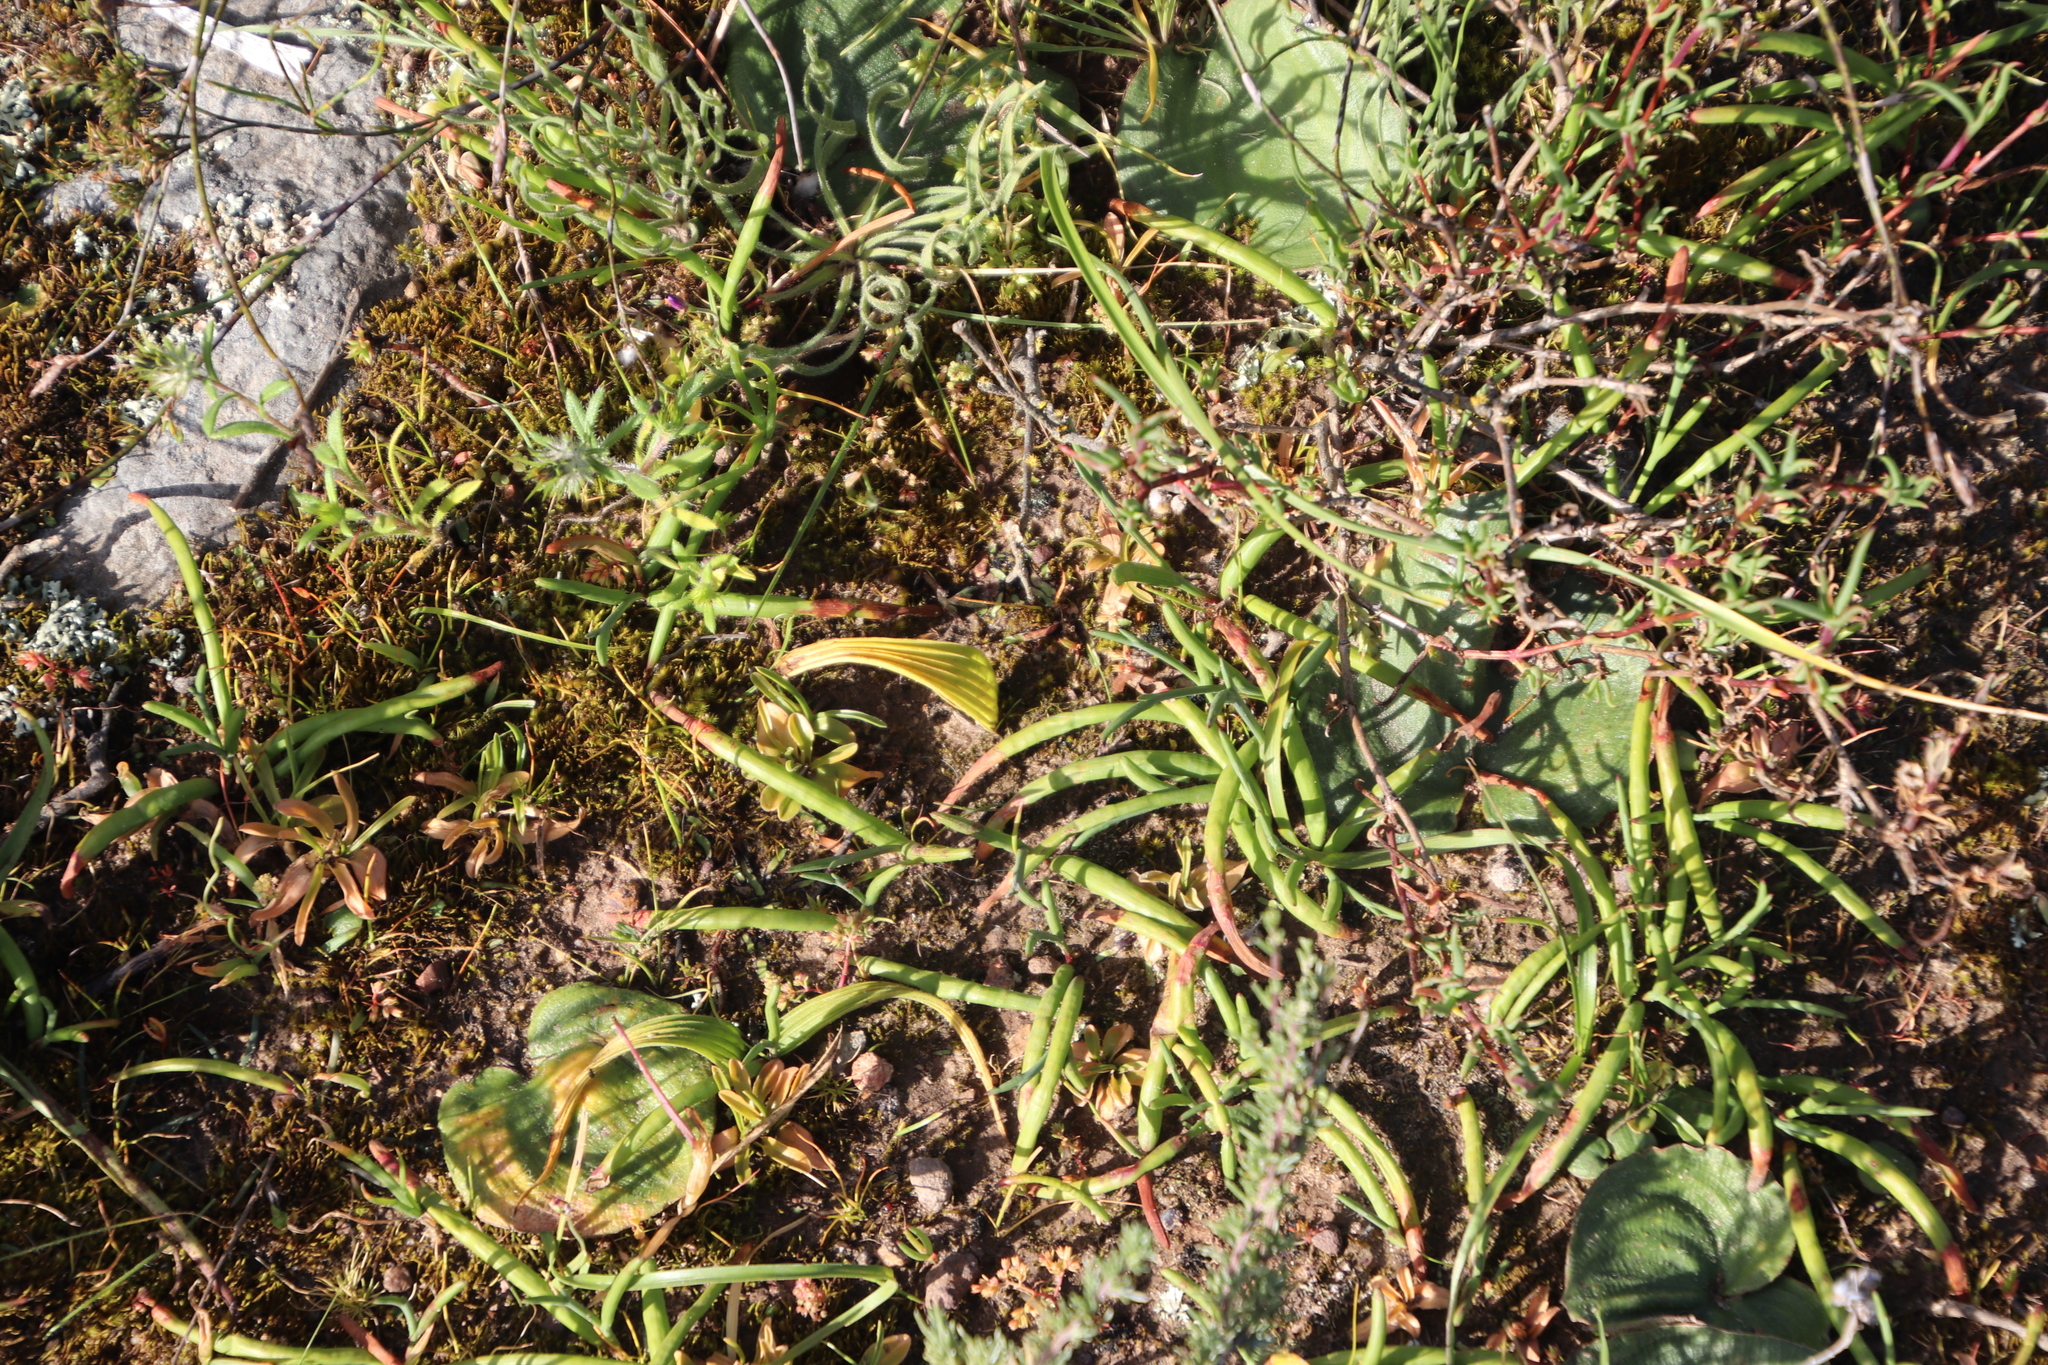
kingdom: Plantae
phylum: Tracheophyta
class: Liliopsida
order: Asparagales
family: Iridaceae
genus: Micranthus
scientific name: Micranthus tubulosus
